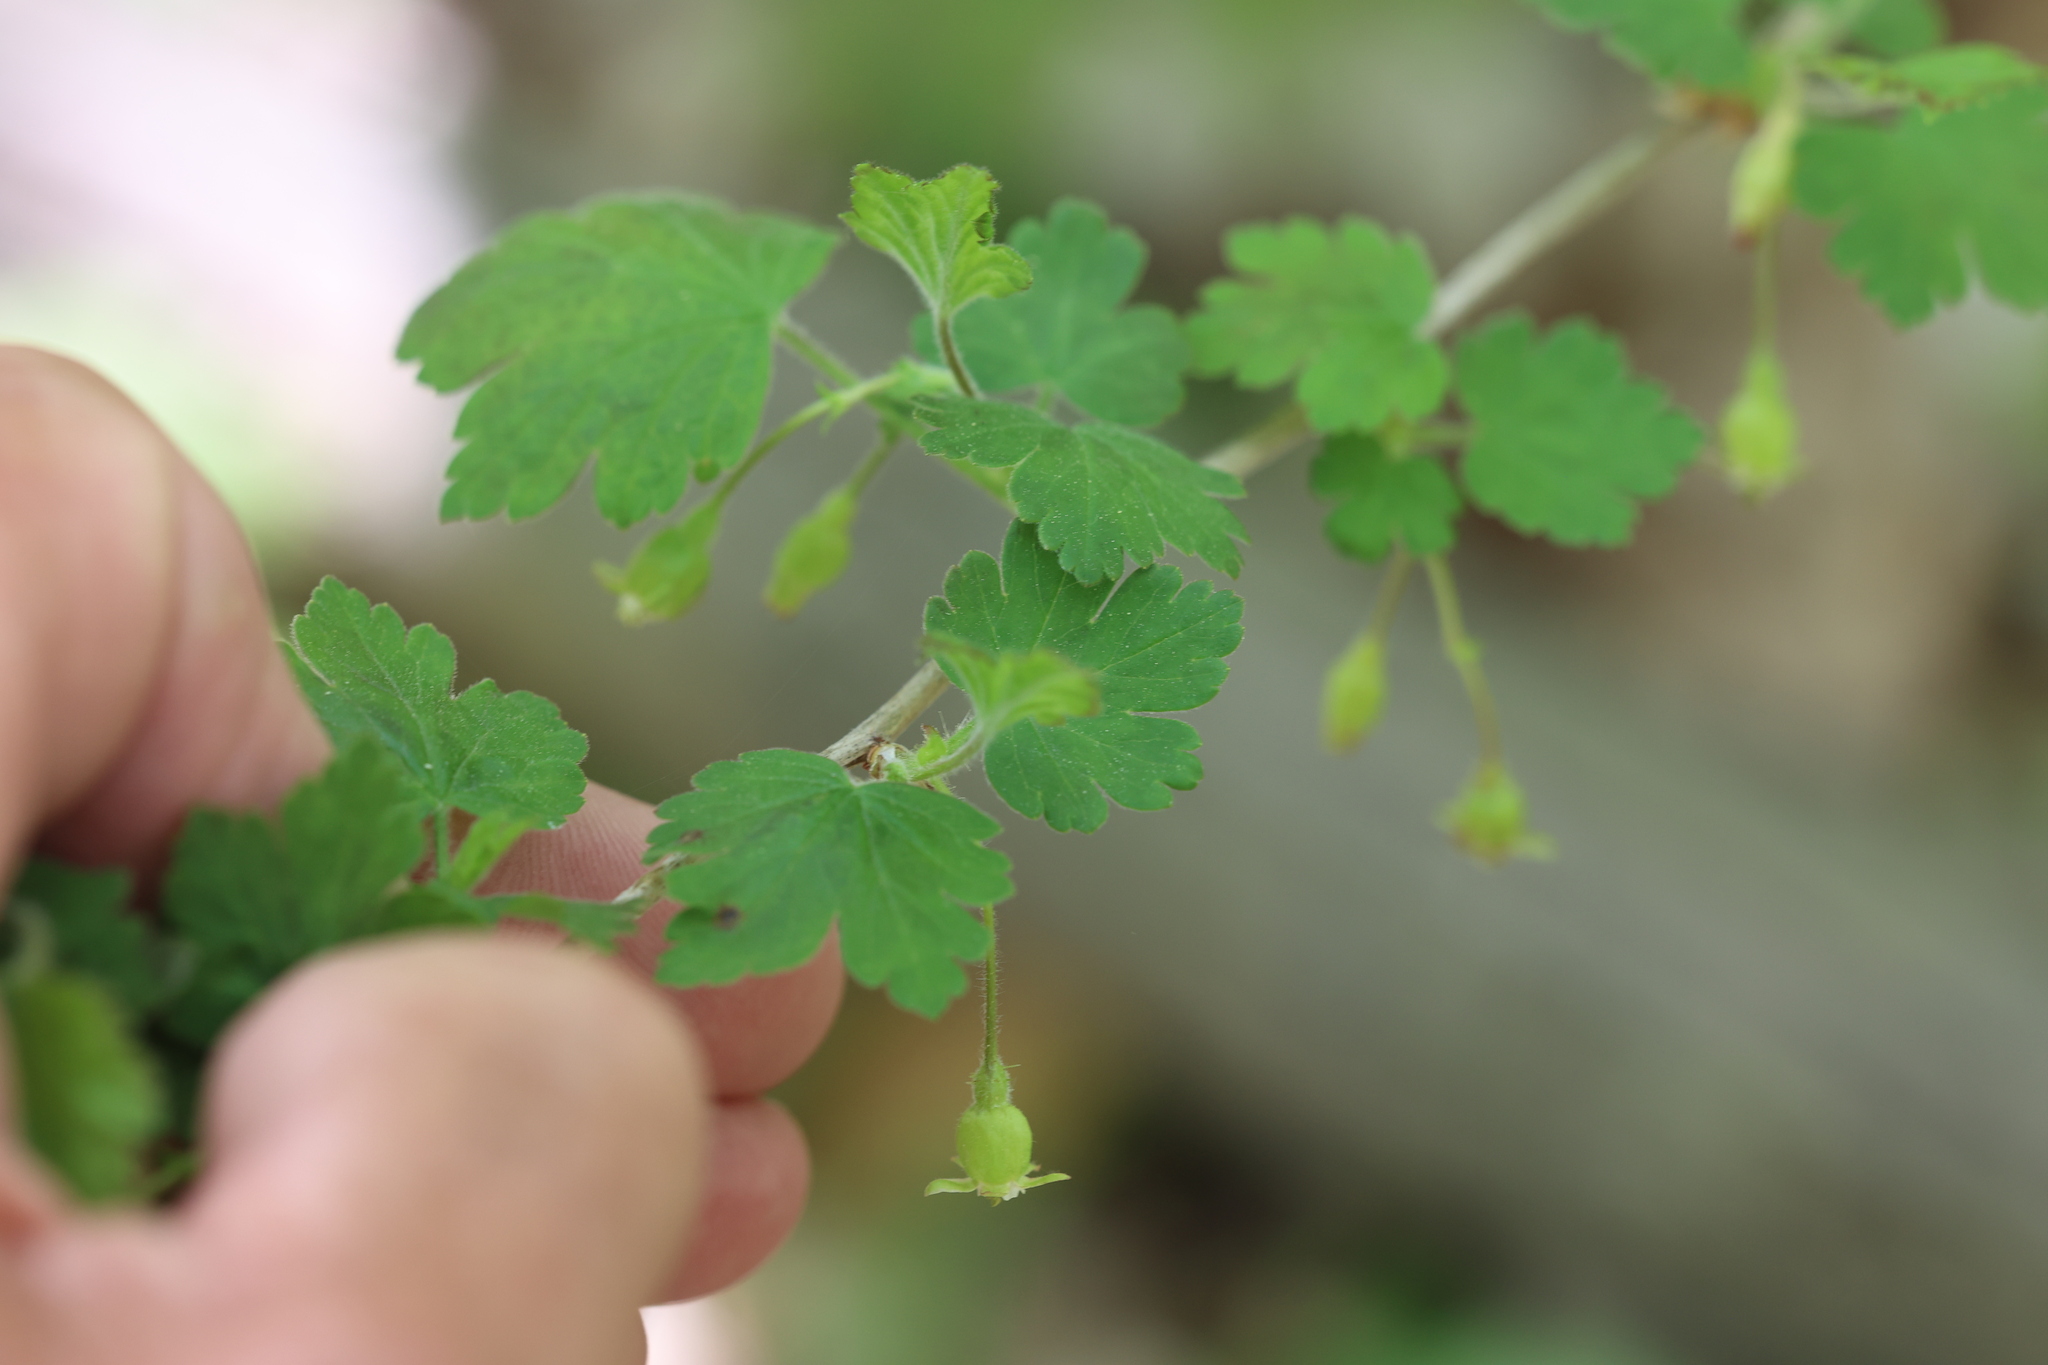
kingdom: Plantae
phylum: Tracheophyta
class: Magnoliopsida
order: Saxifragales
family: Grossulariaceae
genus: Ribes
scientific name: Ribes cynosbati
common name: American gooseberry
